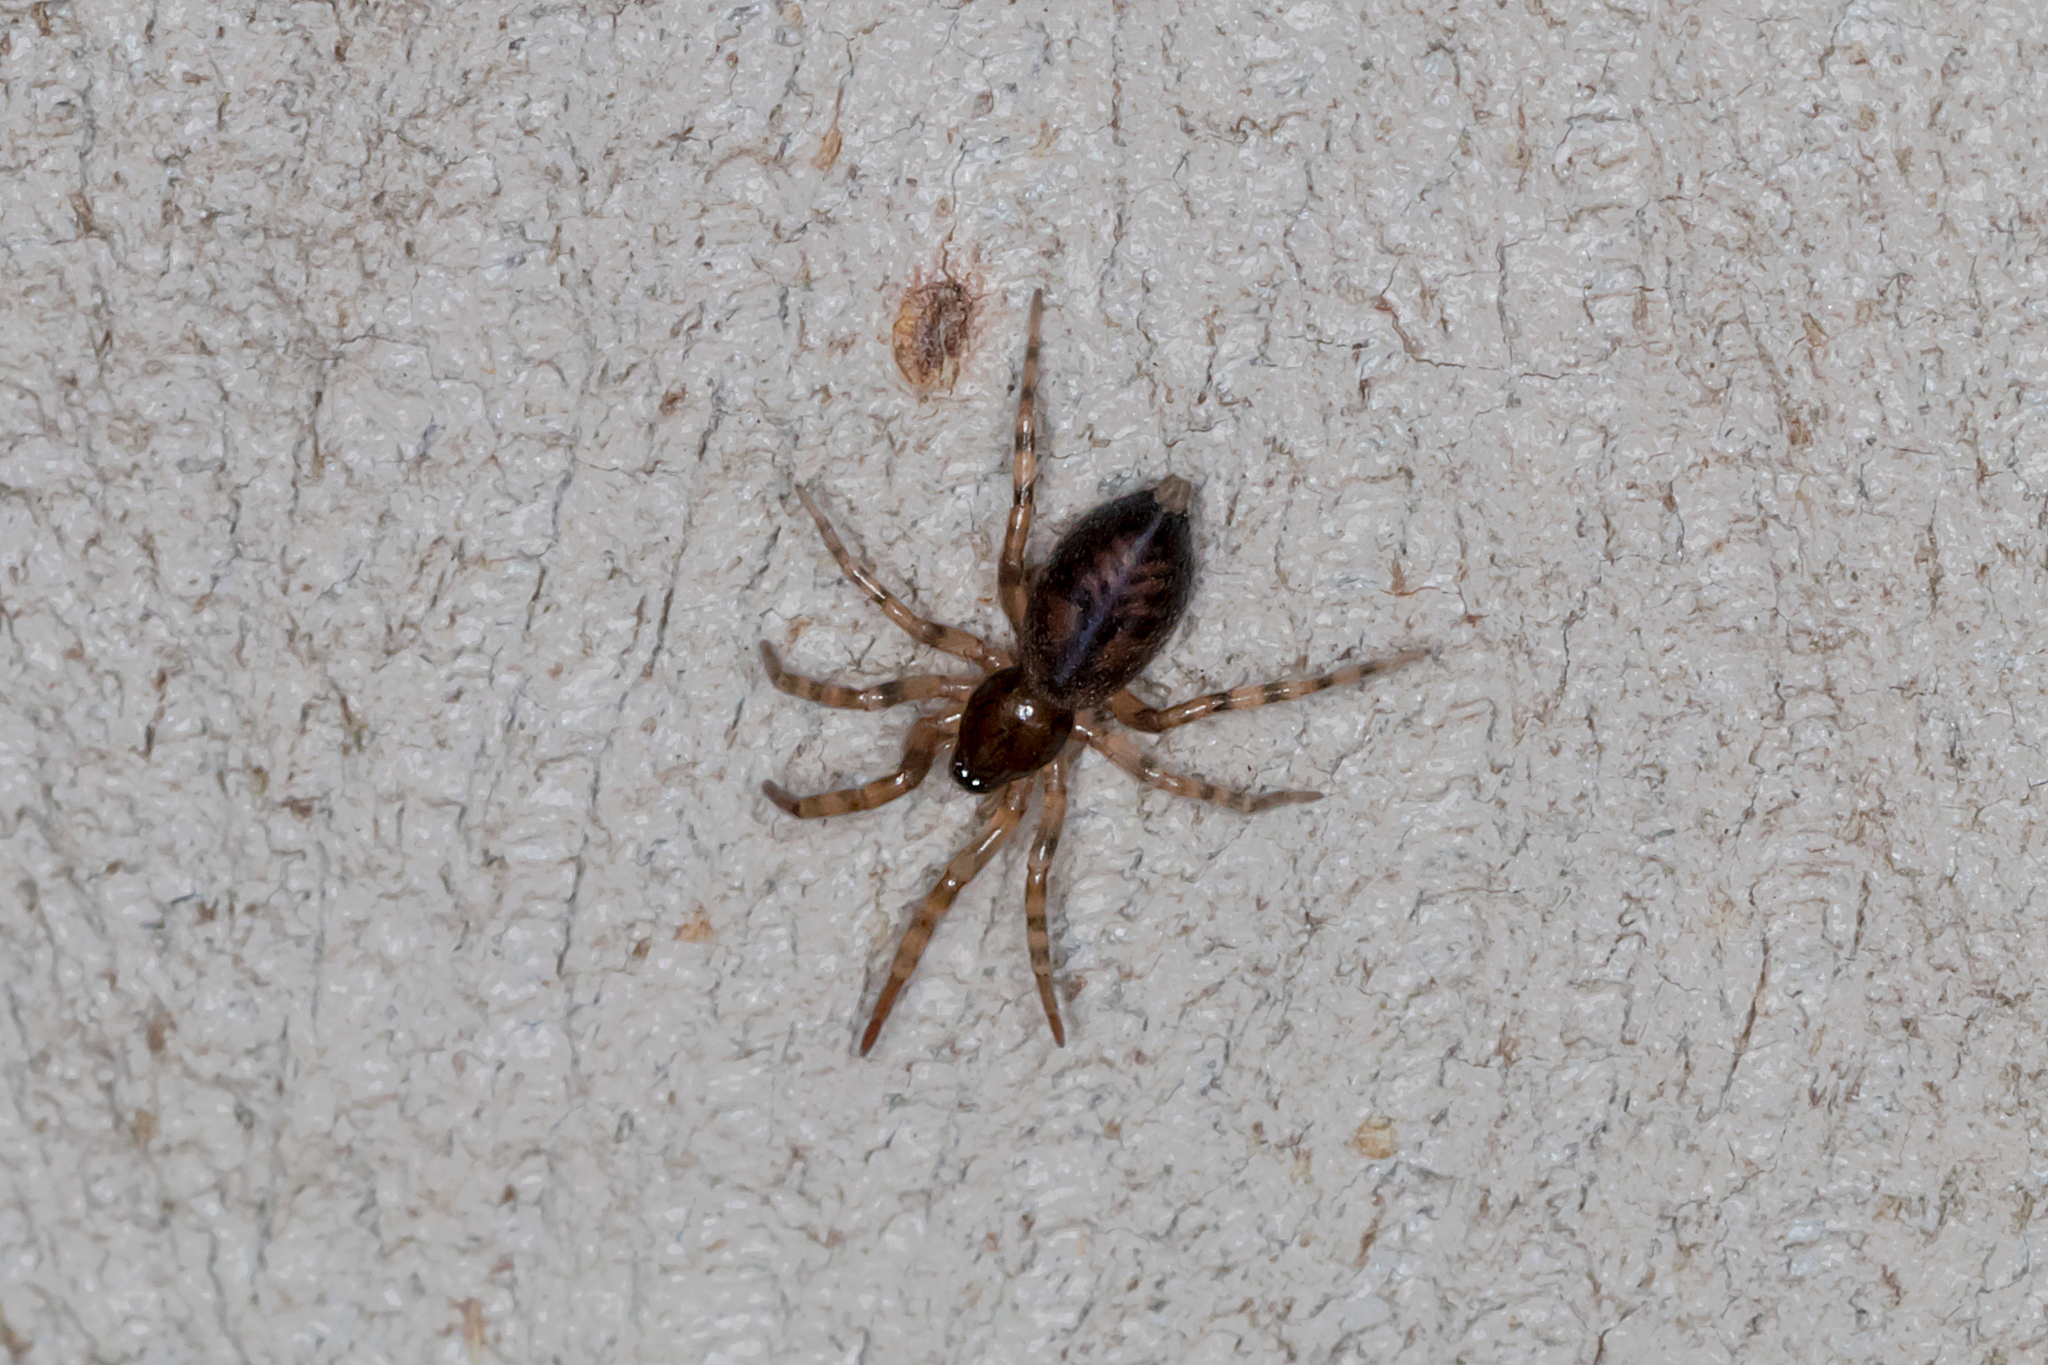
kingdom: Animalia
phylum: Arthropoda
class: Arachnida
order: Araneae
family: Gnaphosidae
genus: Intruda
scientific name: Intruda signata
